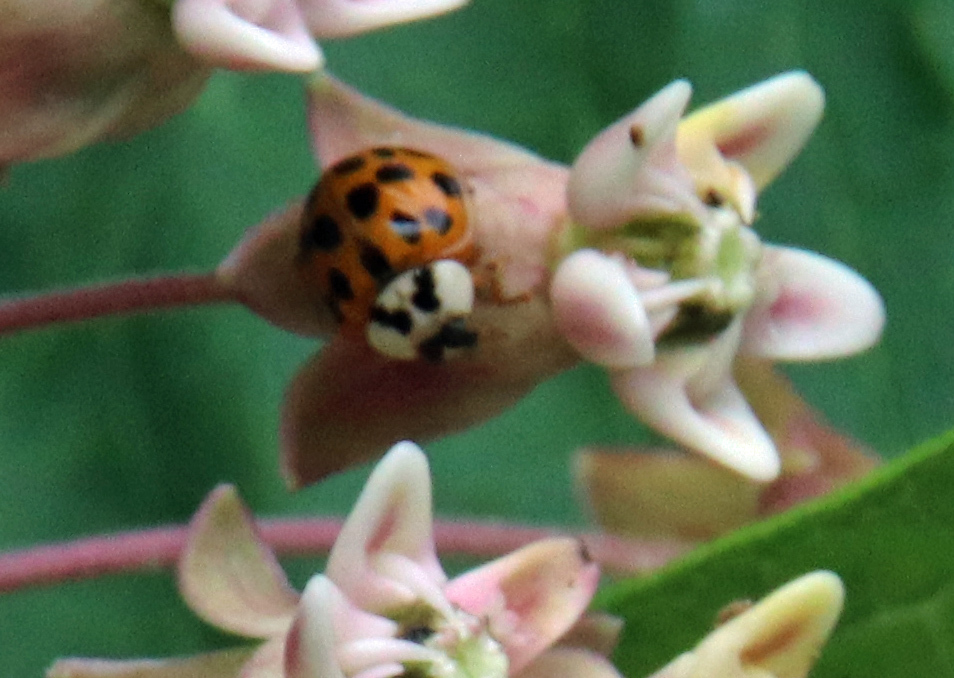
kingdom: Animalia
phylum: Arthropoda
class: Insecta
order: Coleoptera
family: Coccinellidae
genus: Harmonia
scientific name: Harmonia axyridis
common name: Harlequin ladybird
